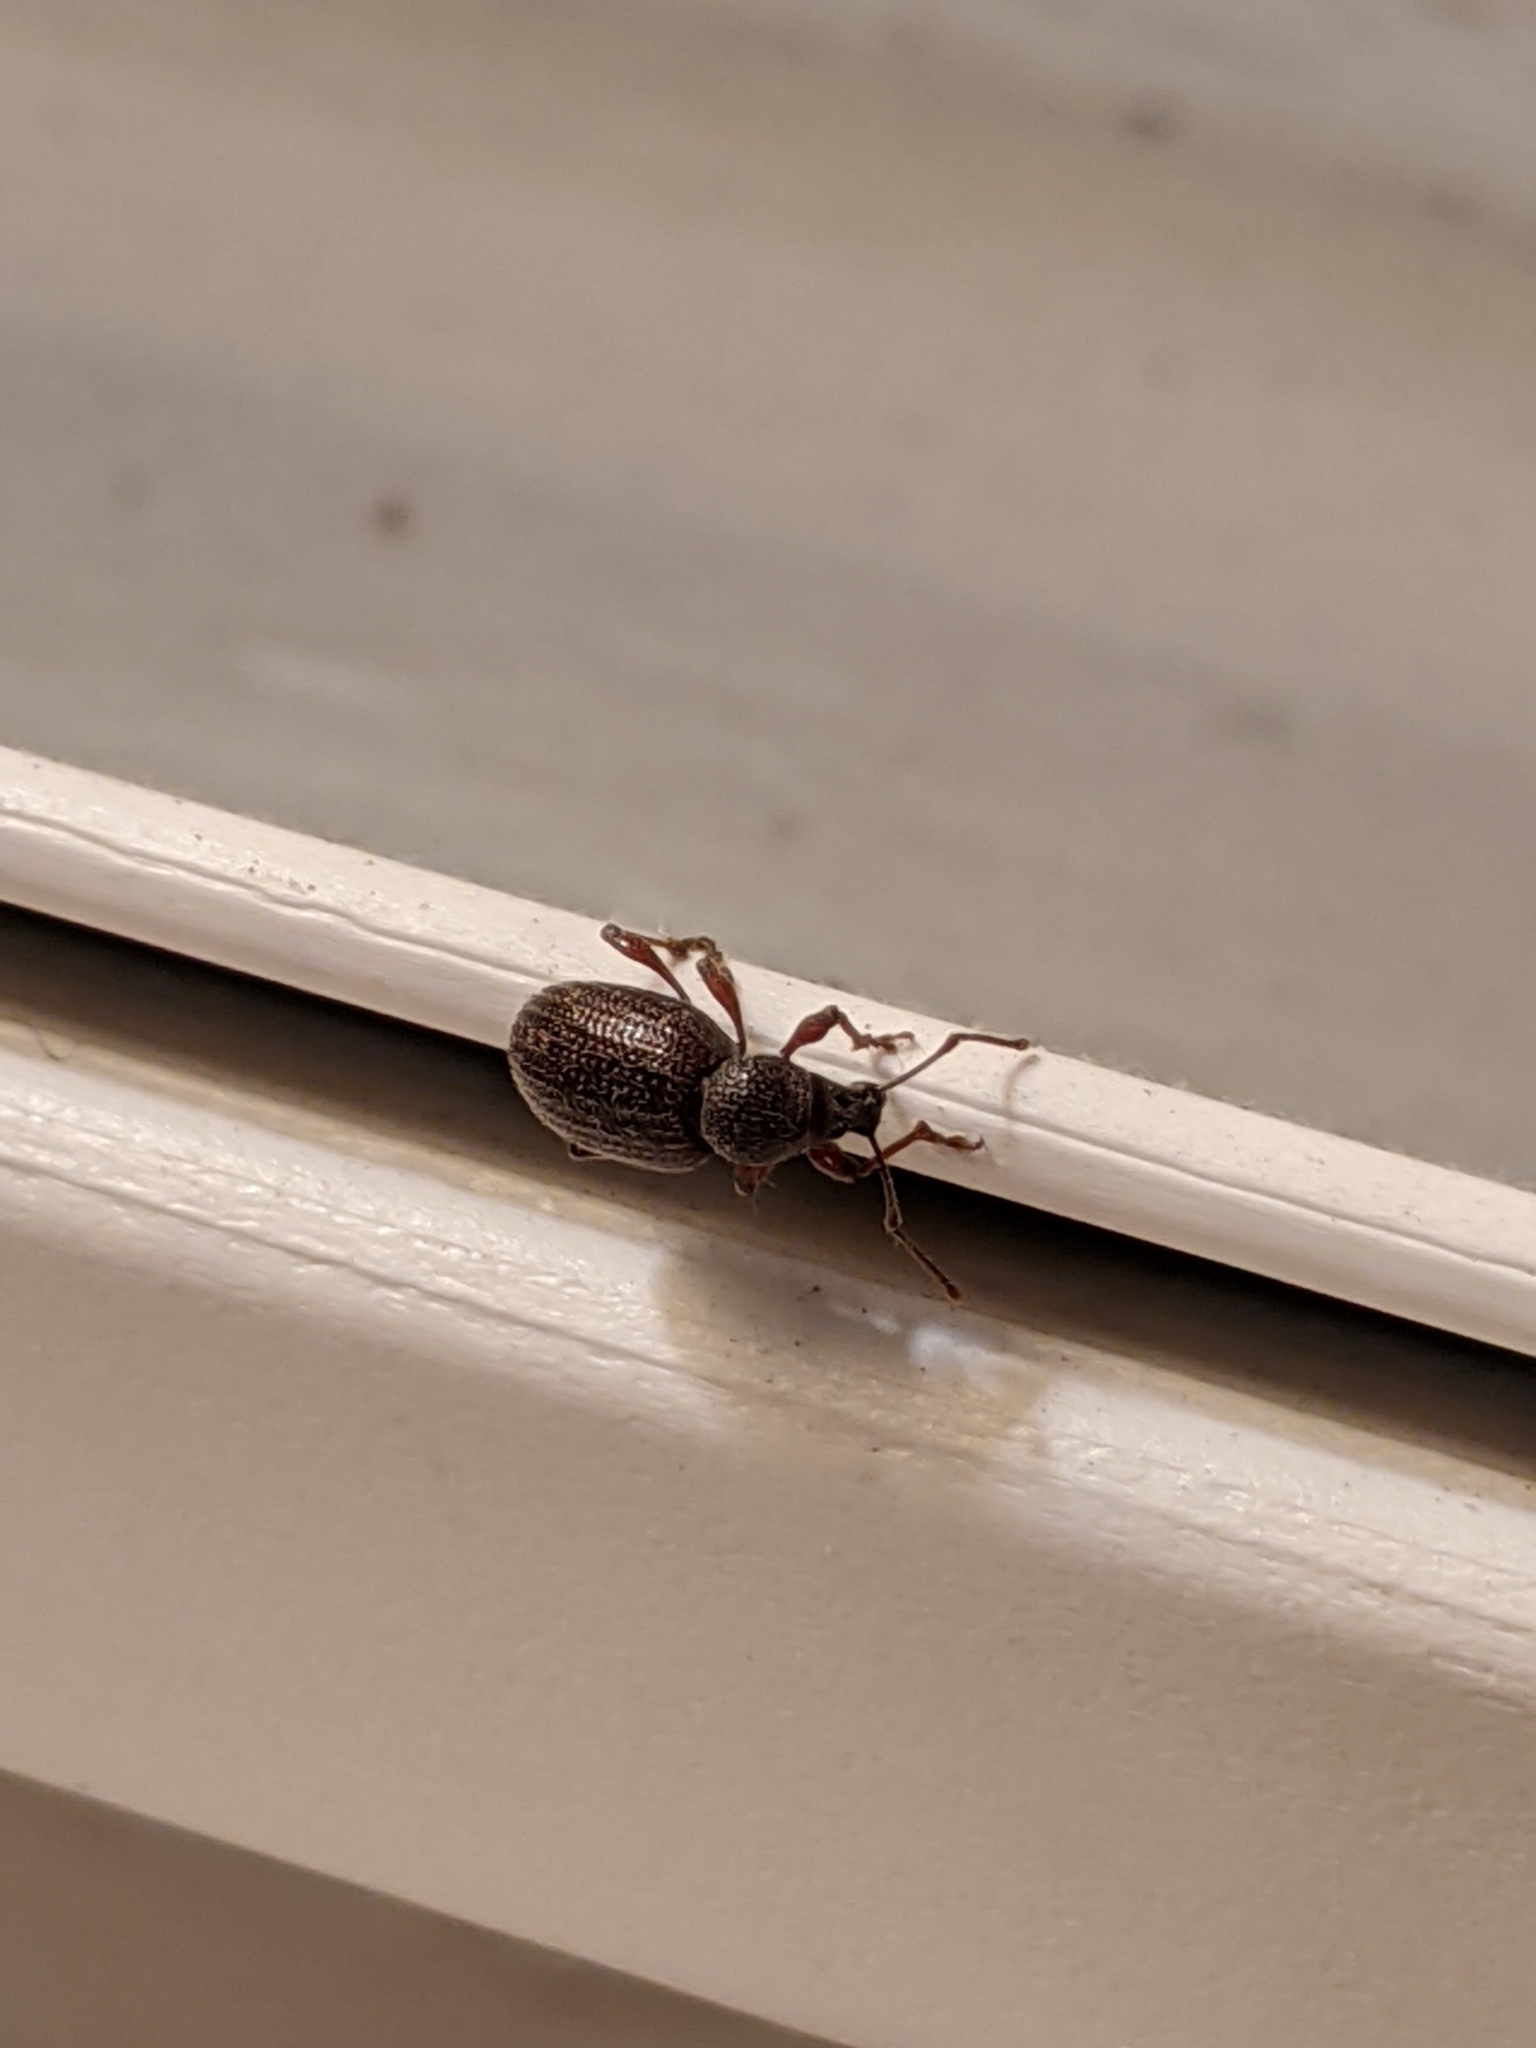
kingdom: Animalia
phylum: Arthropoda
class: Insecta
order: Coleoptera
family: Curculionidae
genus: Otiorhynchus
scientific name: Otiorhynchus cribricollis
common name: Weevil
